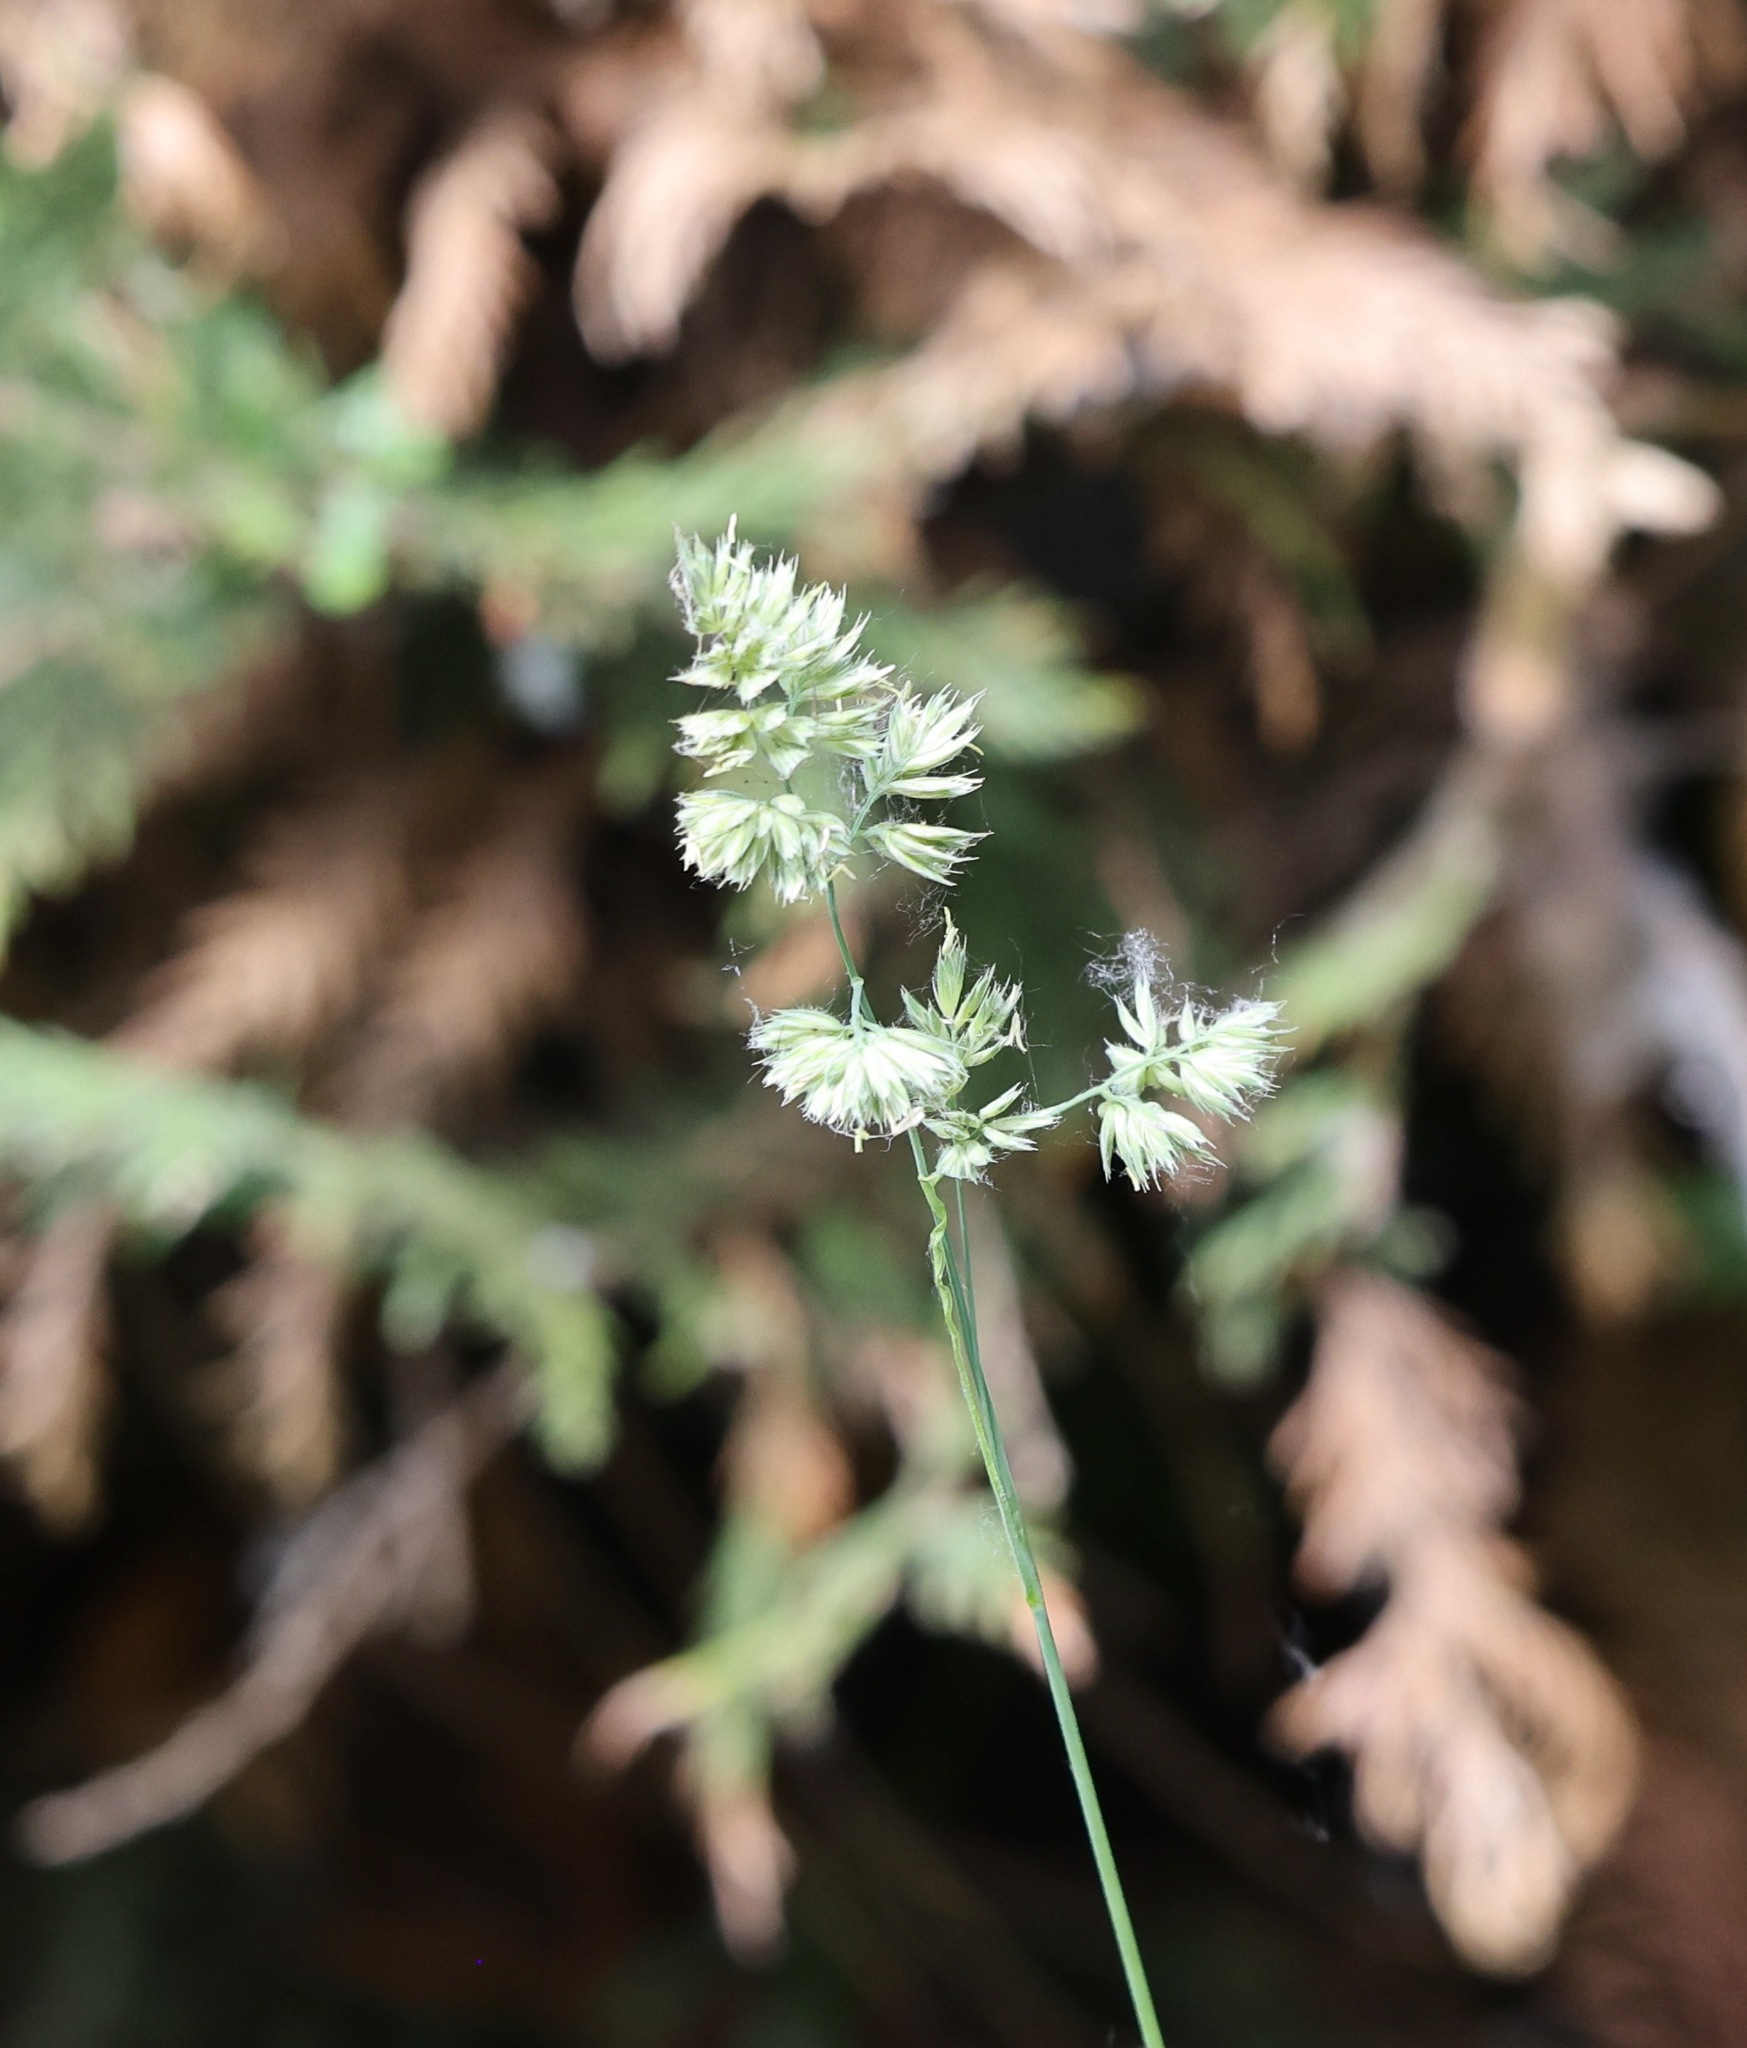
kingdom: Plantae
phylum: Tracheophyta
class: Liliopsida
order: Poales
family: Poaceae
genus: Dactylis
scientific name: Dactylis glomerata
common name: Orchardgrass
